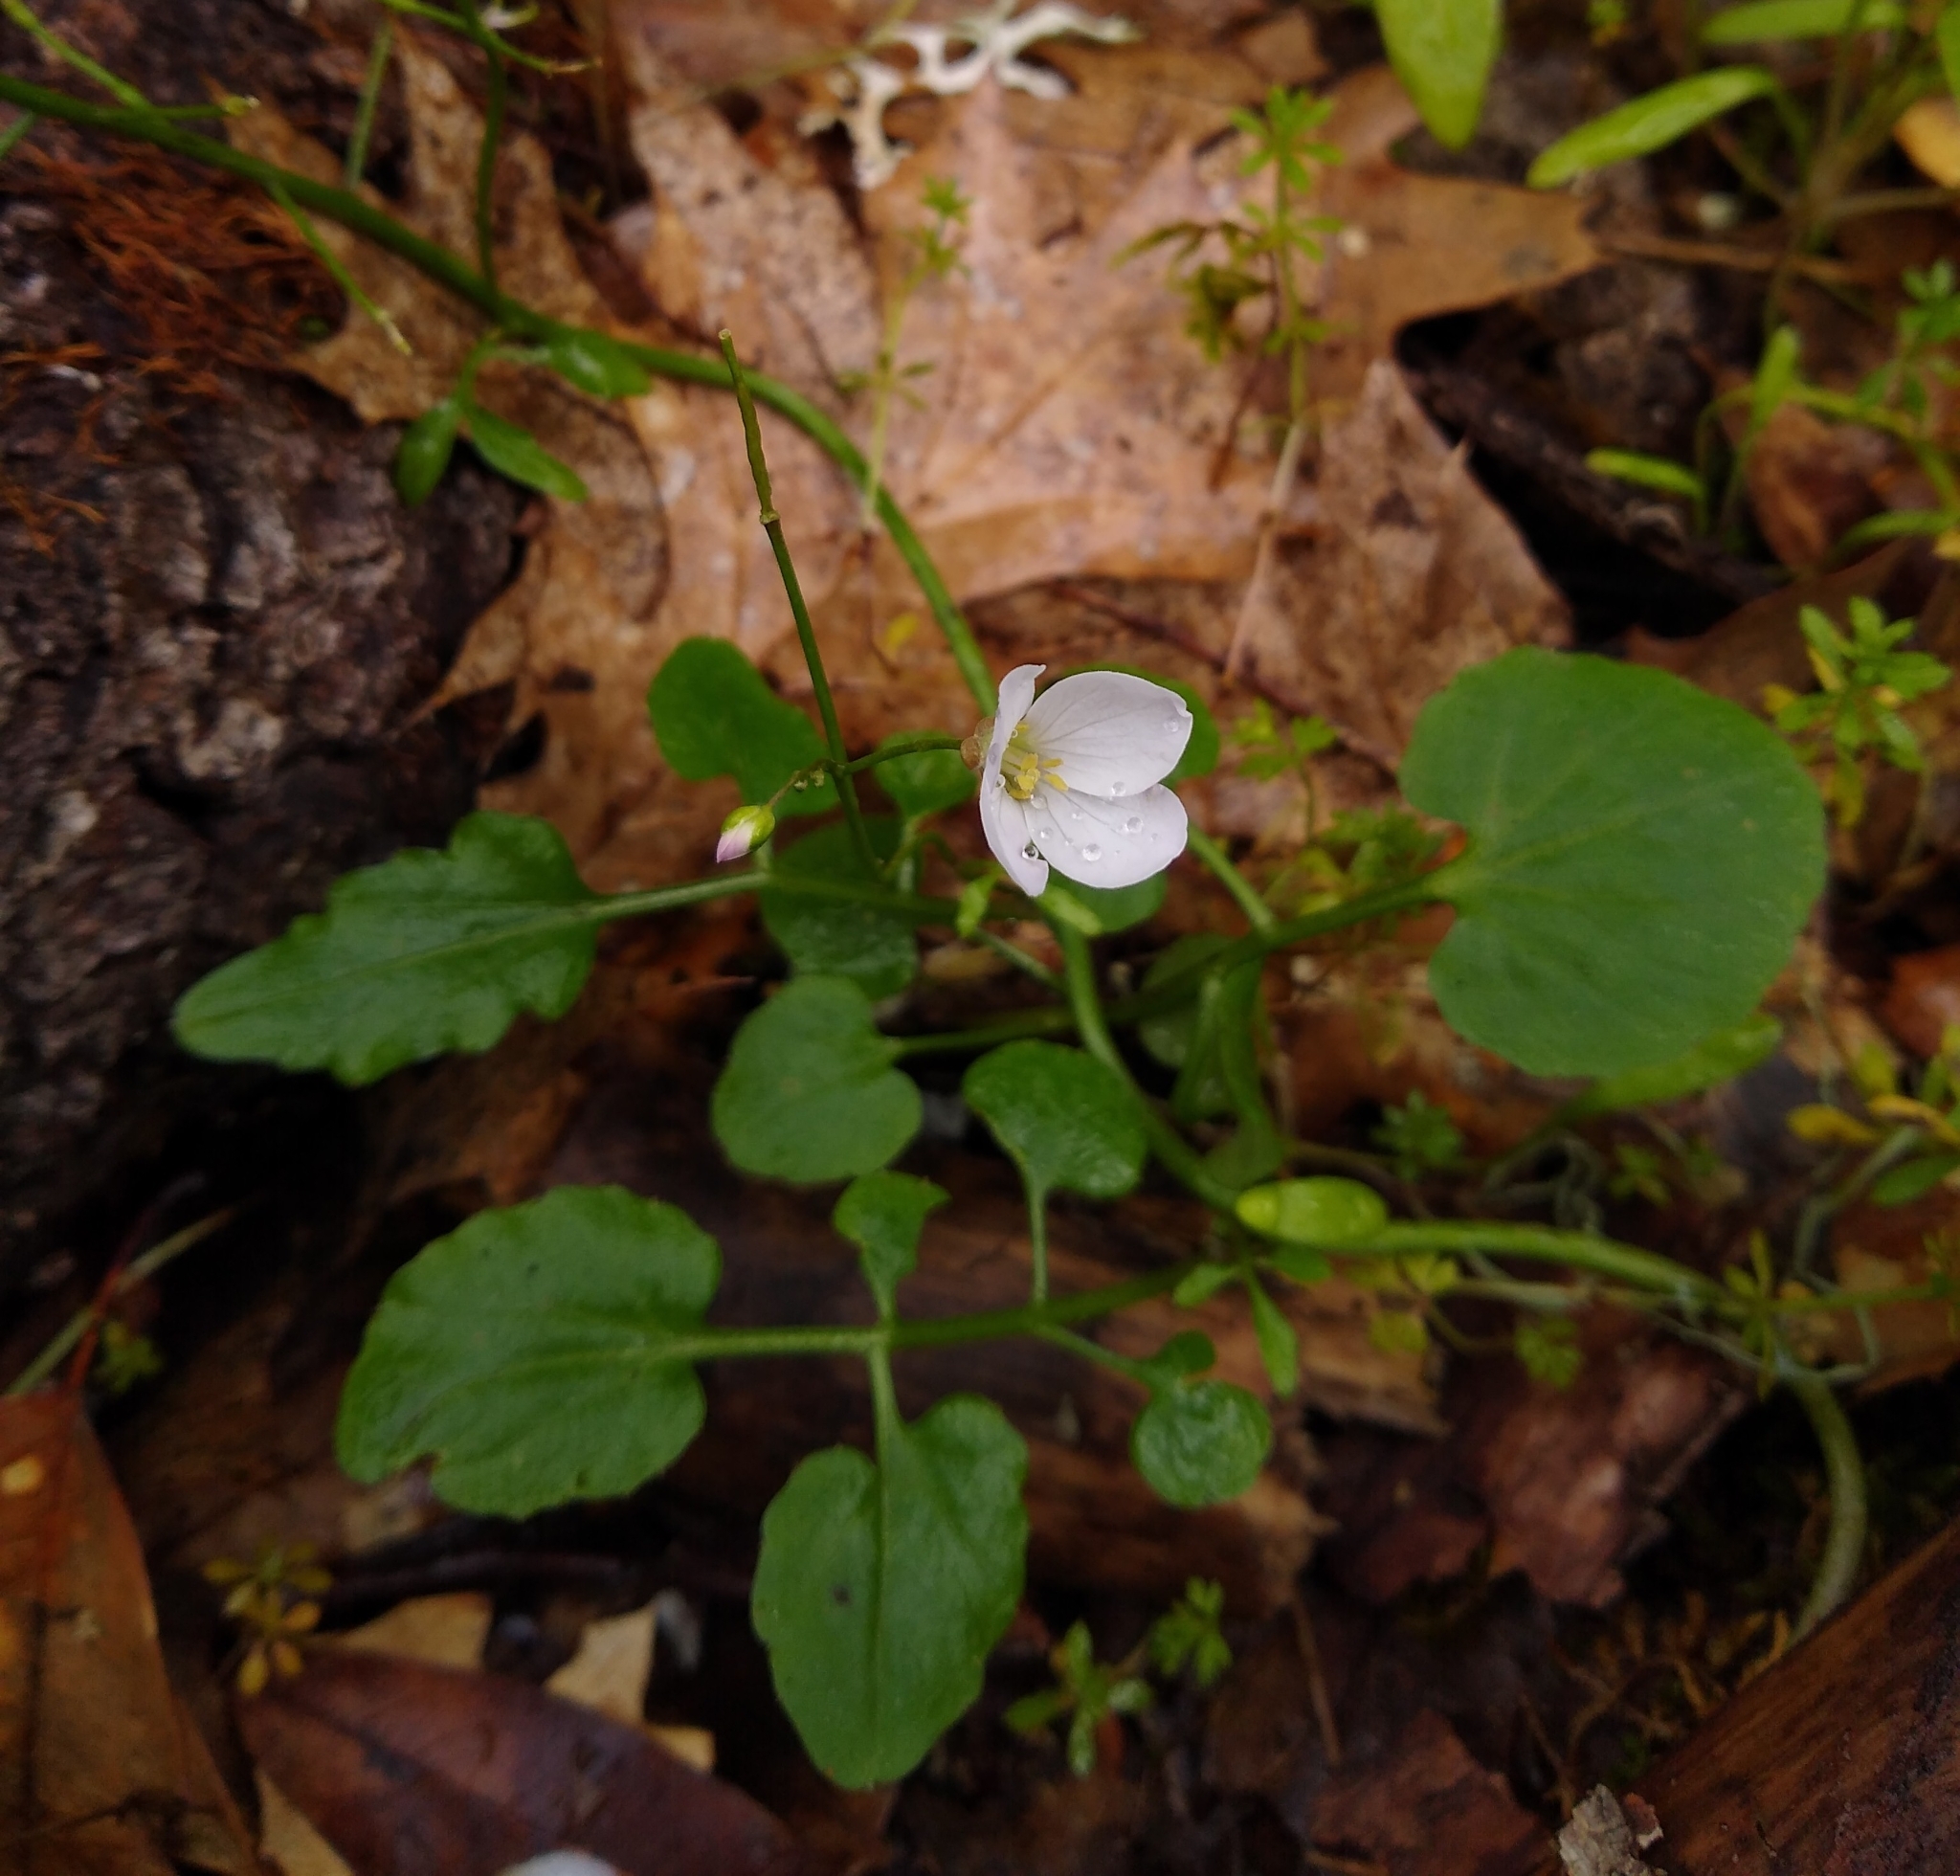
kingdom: Plantae
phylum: Tracheophyta
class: Magnoliopsida
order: Brassicales
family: Brassicaceae
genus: Cardamine
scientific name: Cardamine californica
